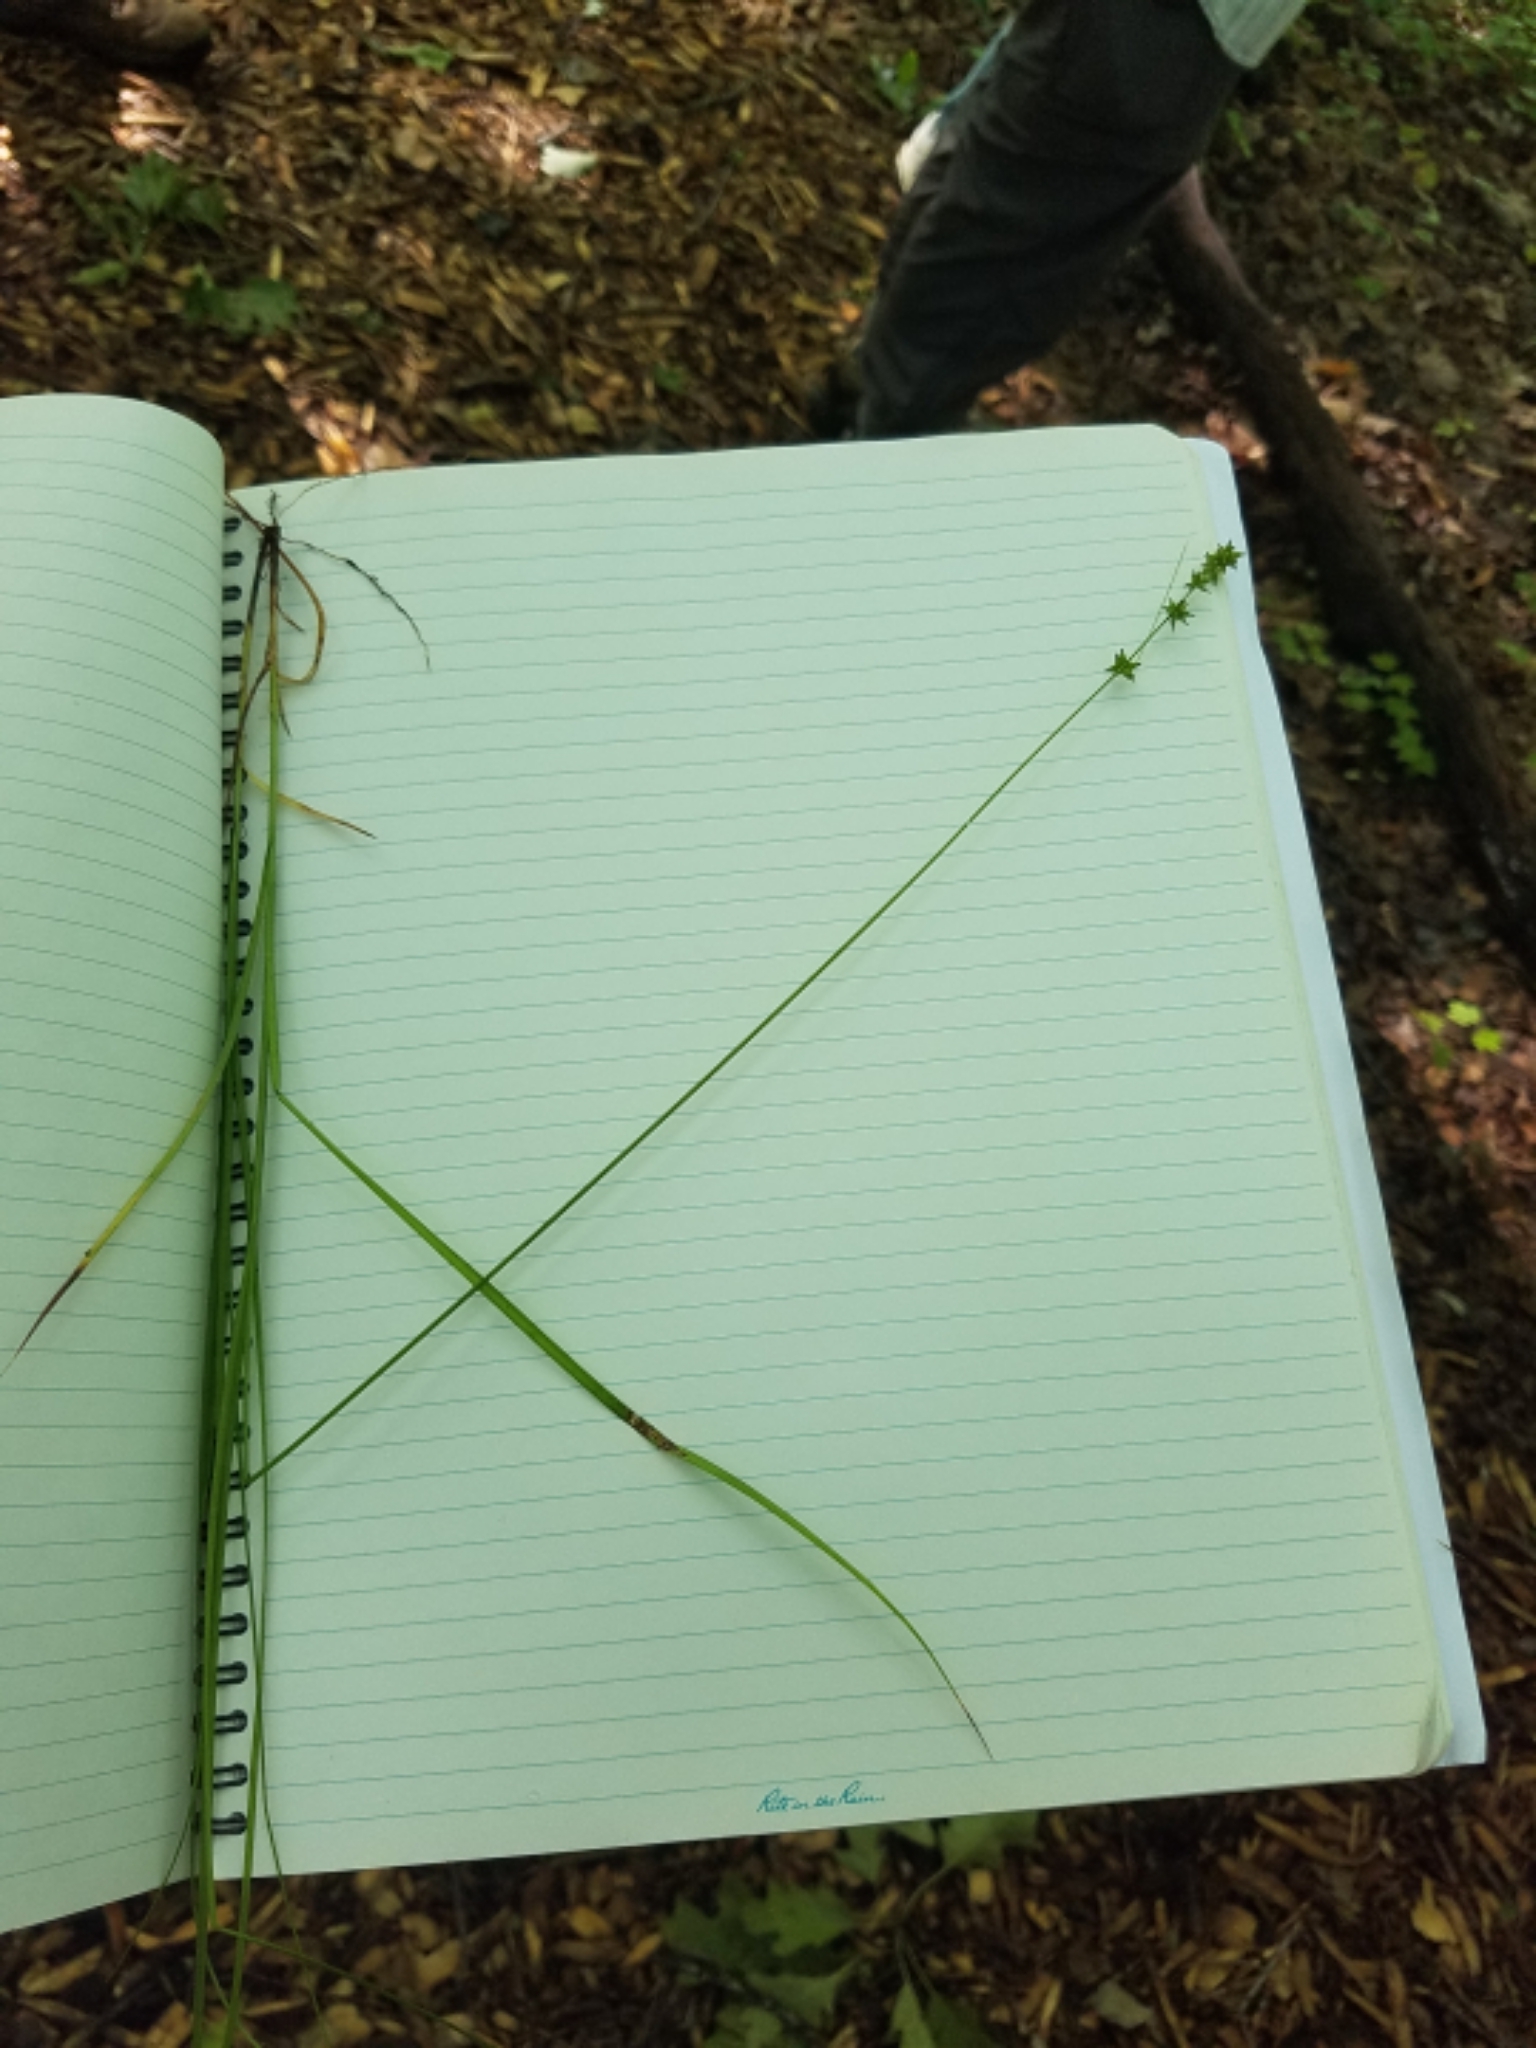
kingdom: Plantae
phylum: Tracheophyta
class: Liliopsida
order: Poales
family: Cyperaceae
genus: Carex
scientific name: Carex rosea
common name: Curly-styled wood sedge
